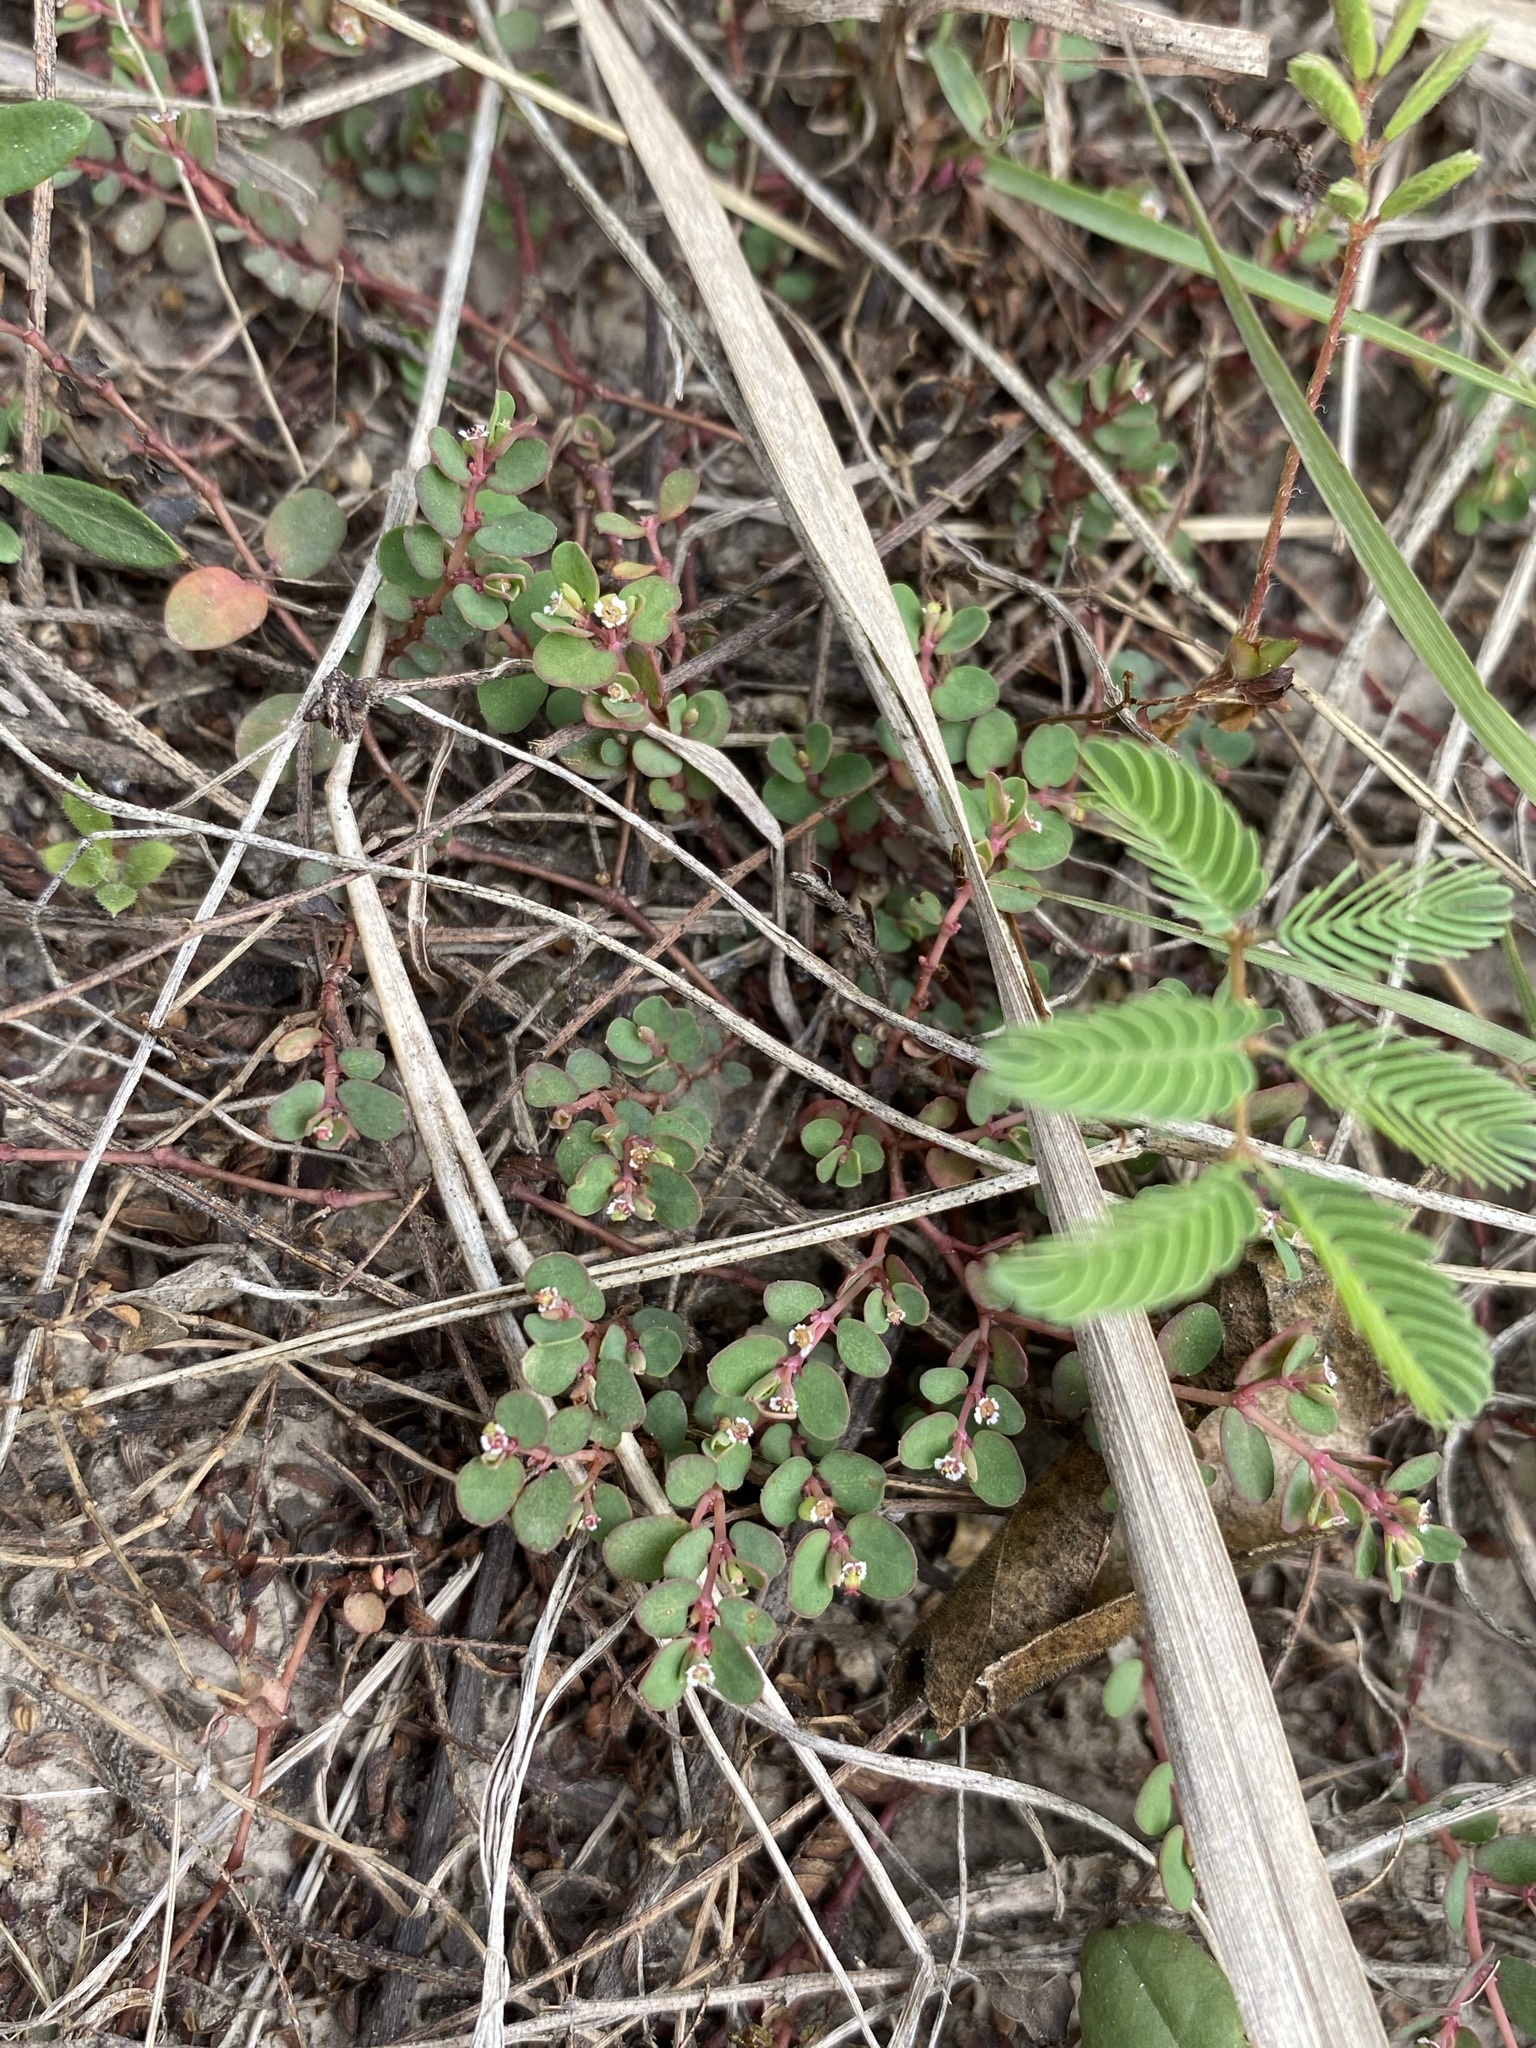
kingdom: Plantae
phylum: Tracheophyta
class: Magnoliopsida
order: Malpighiales
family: Euphorbiaceae
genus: Euphorbia
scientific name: Euphorbia serpens
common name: Matted sandmat
